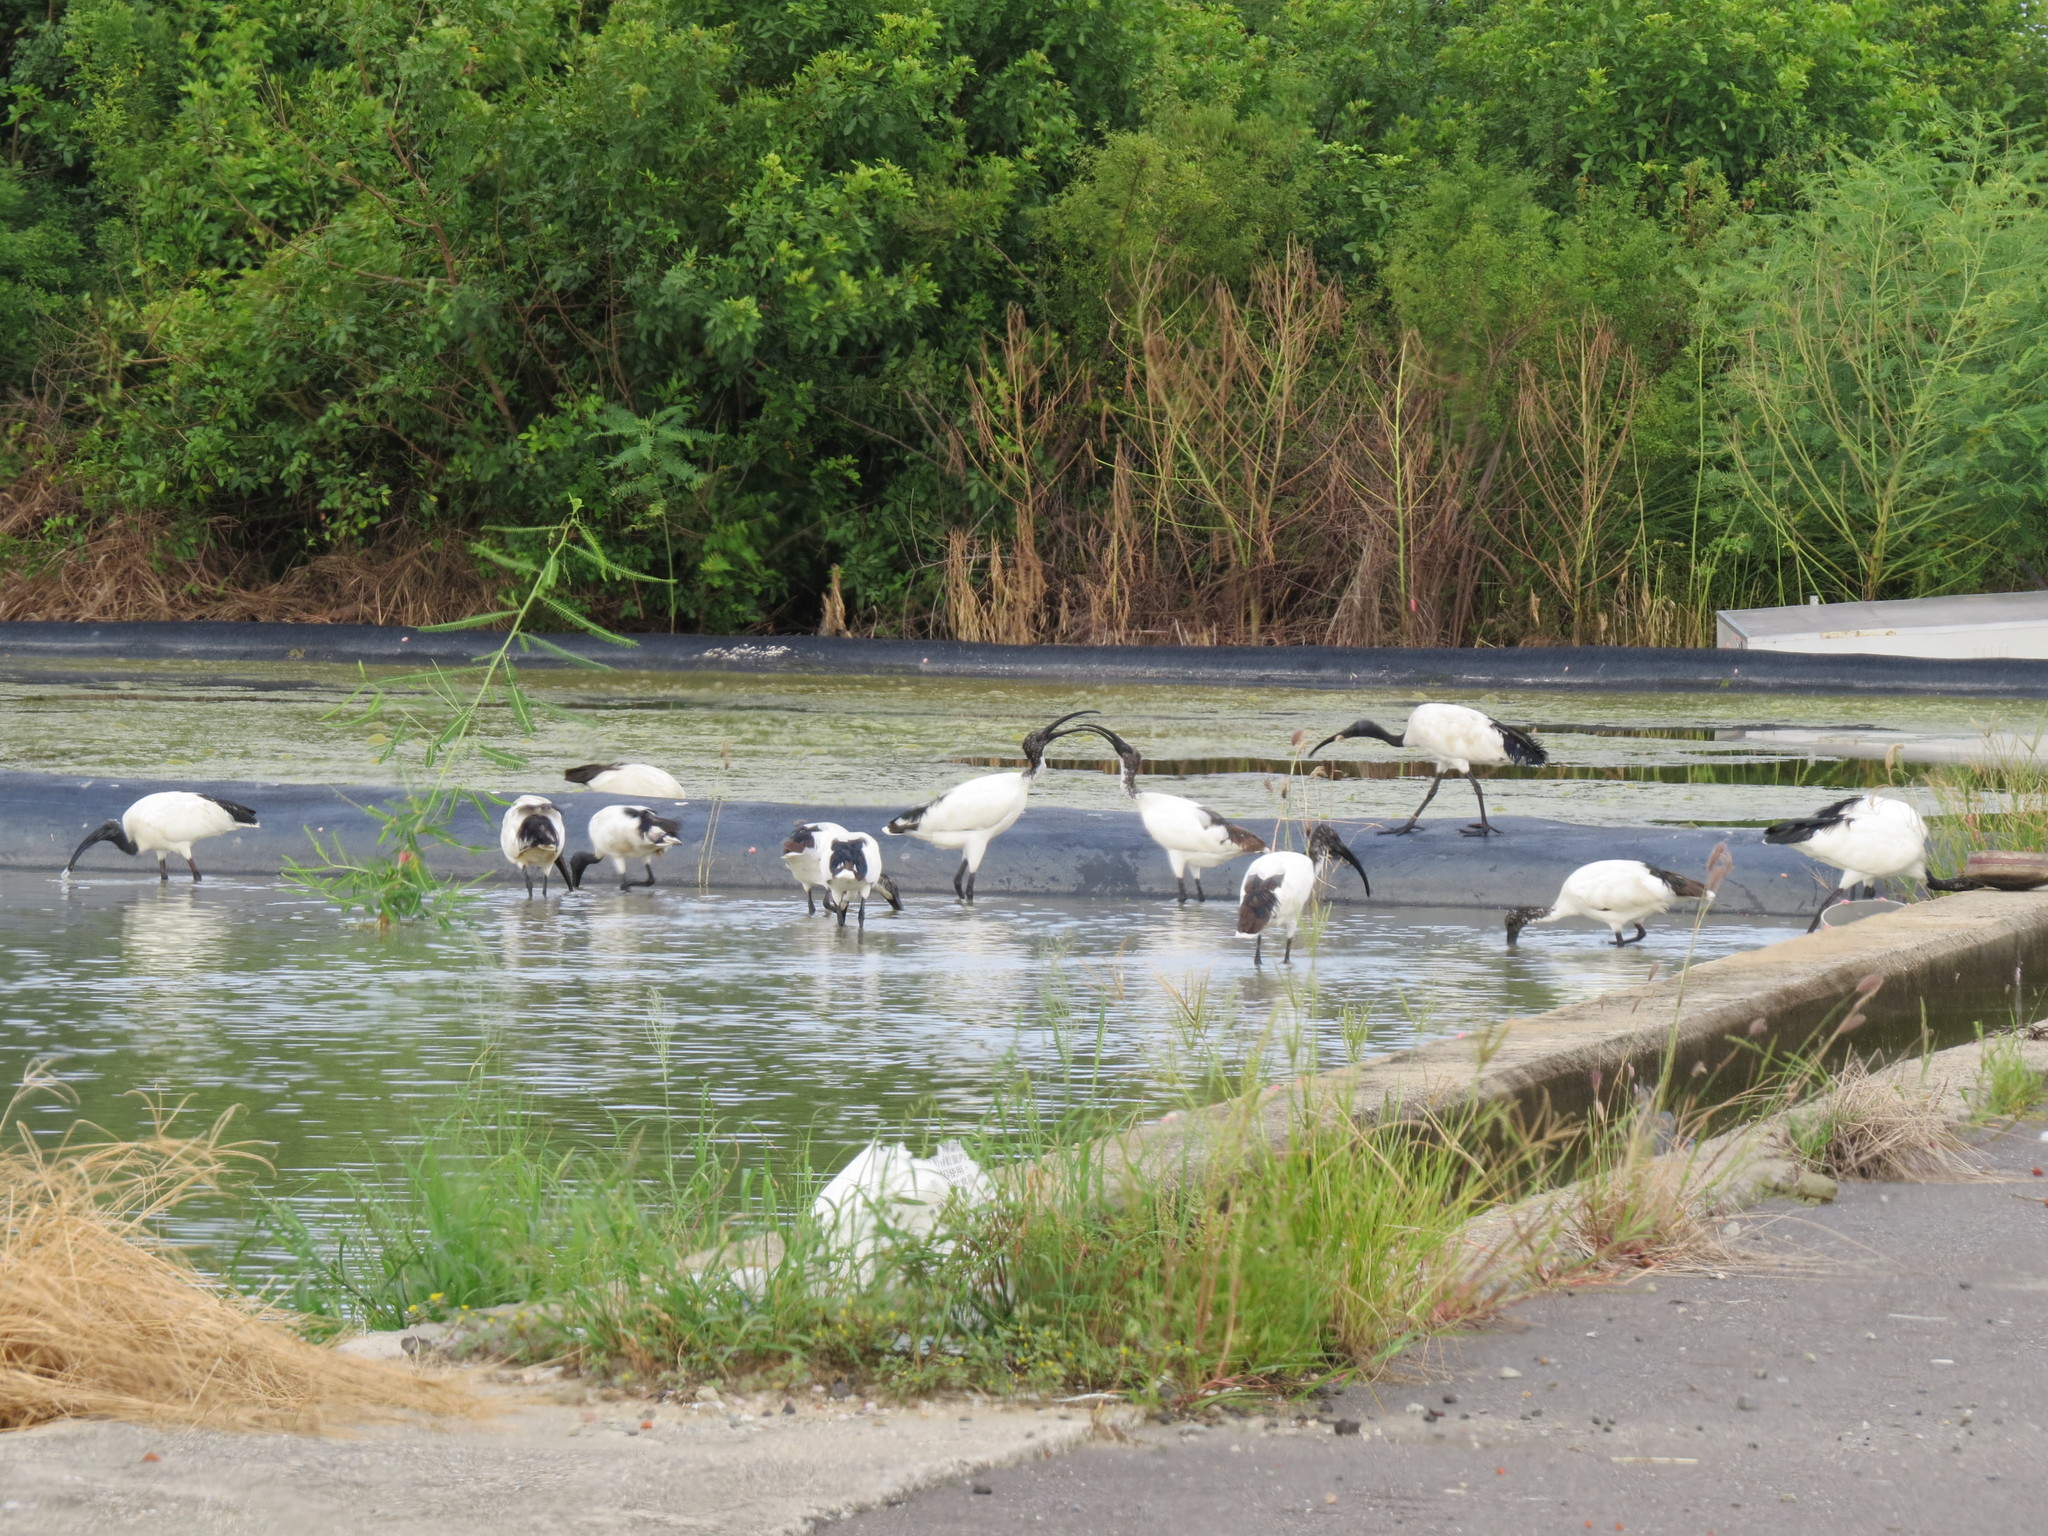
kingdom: Animalia
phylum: Chordata
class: Aves
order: Pelecaniformes
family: Threskiornithidae
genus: Threskiornis
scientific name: Threskiornis aethiopicus
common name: Sacred ibis
